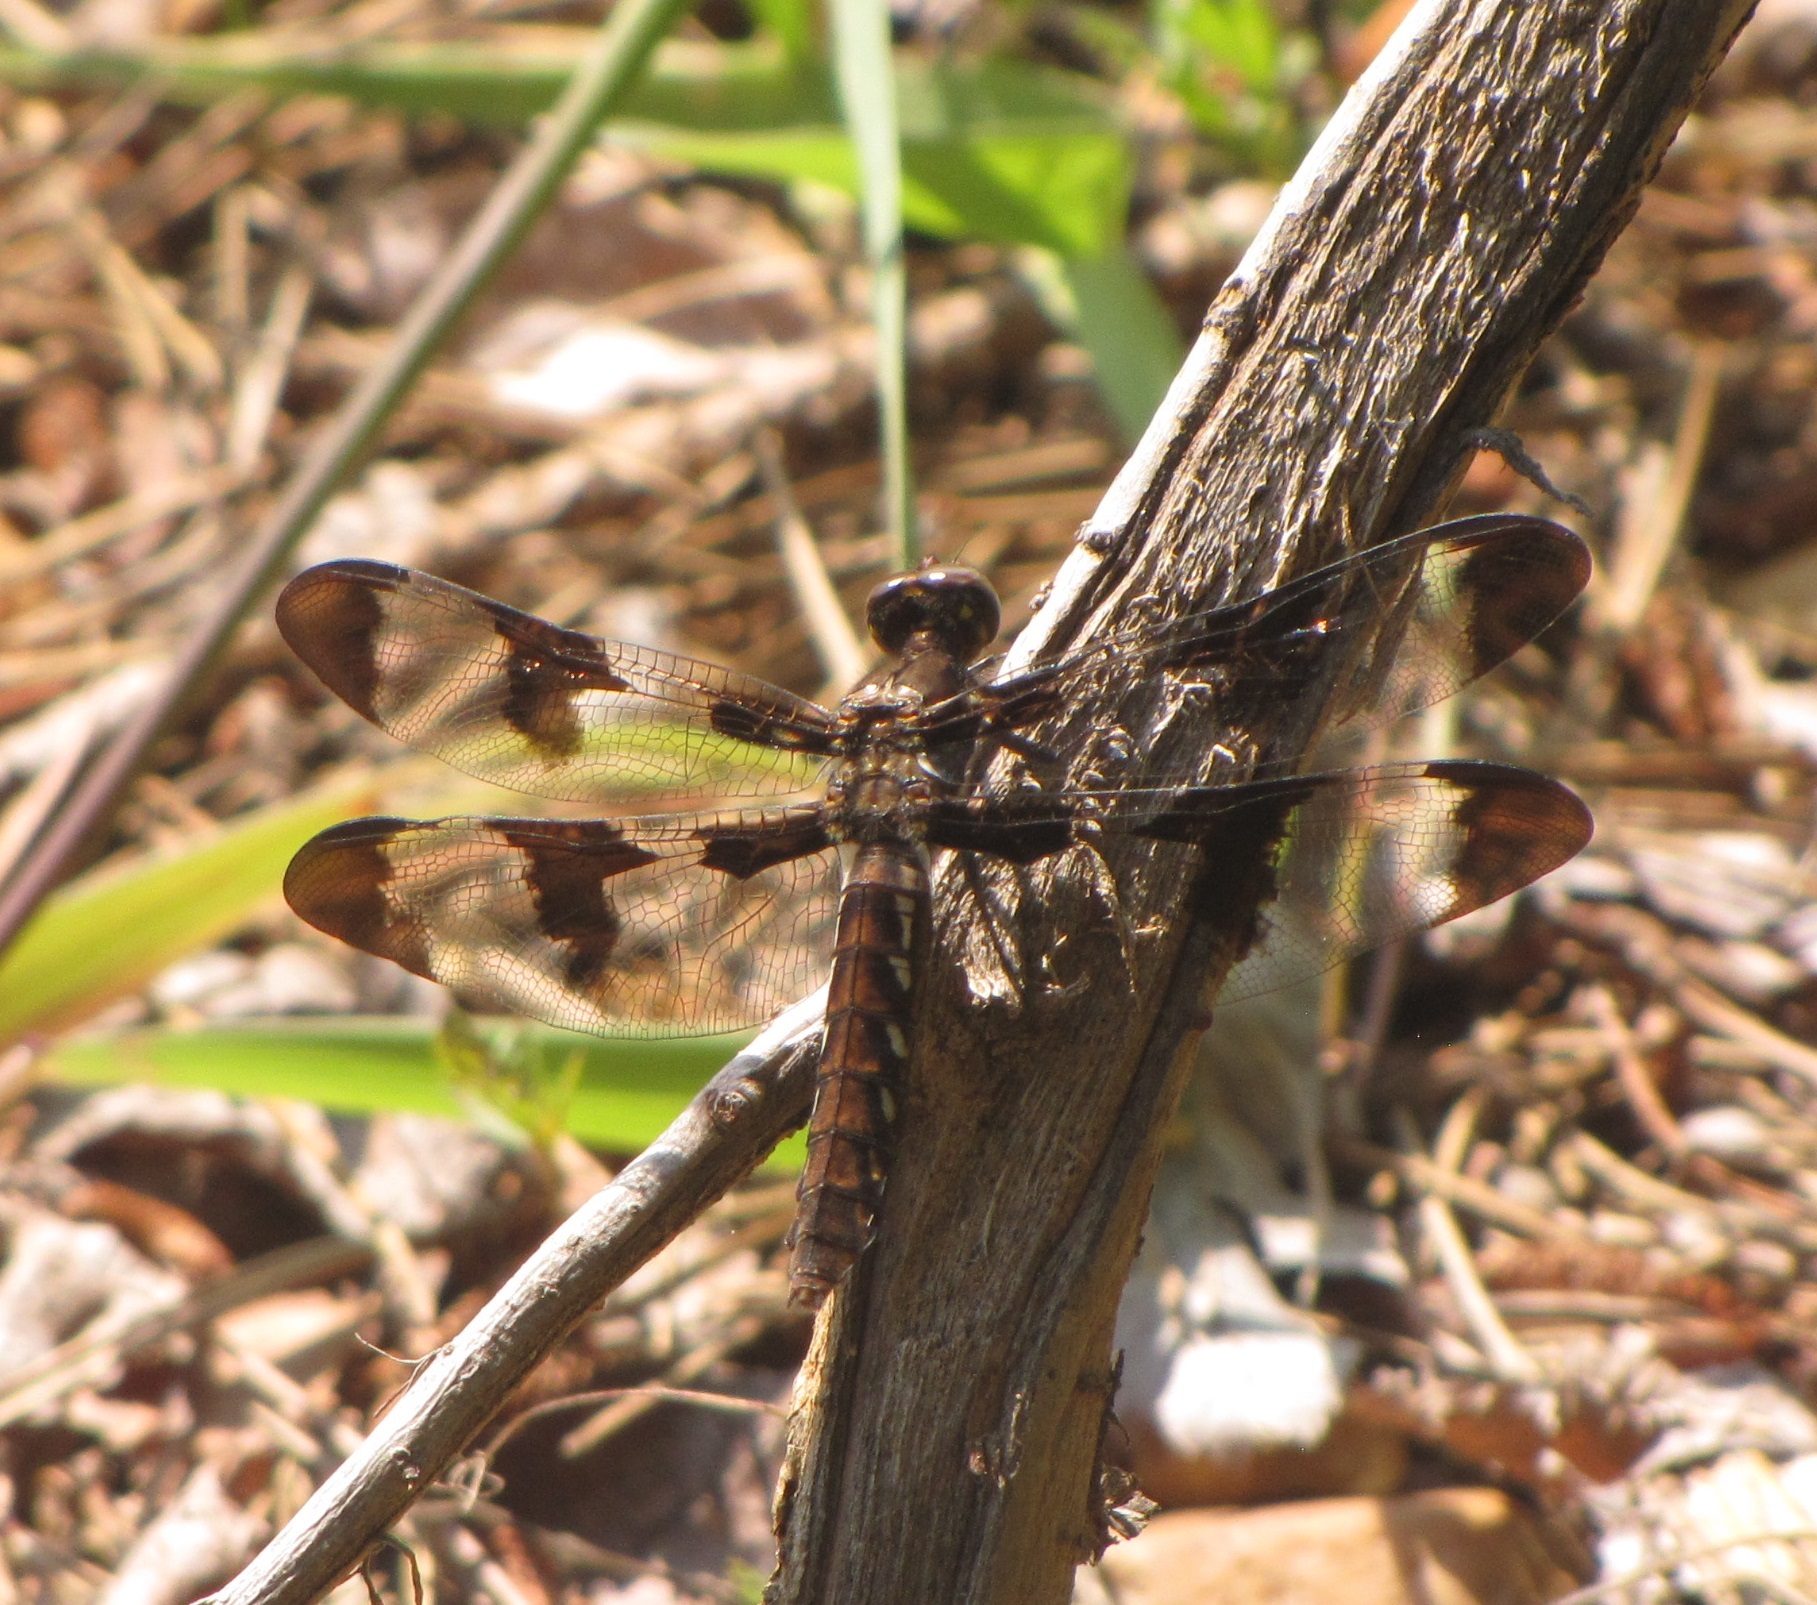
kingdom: Animalia
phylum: Arthropoda
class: Insecta
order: Odonata
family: Libellulidae
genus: Plathemis
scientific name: Plathemis lydia
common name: Common whitetail
